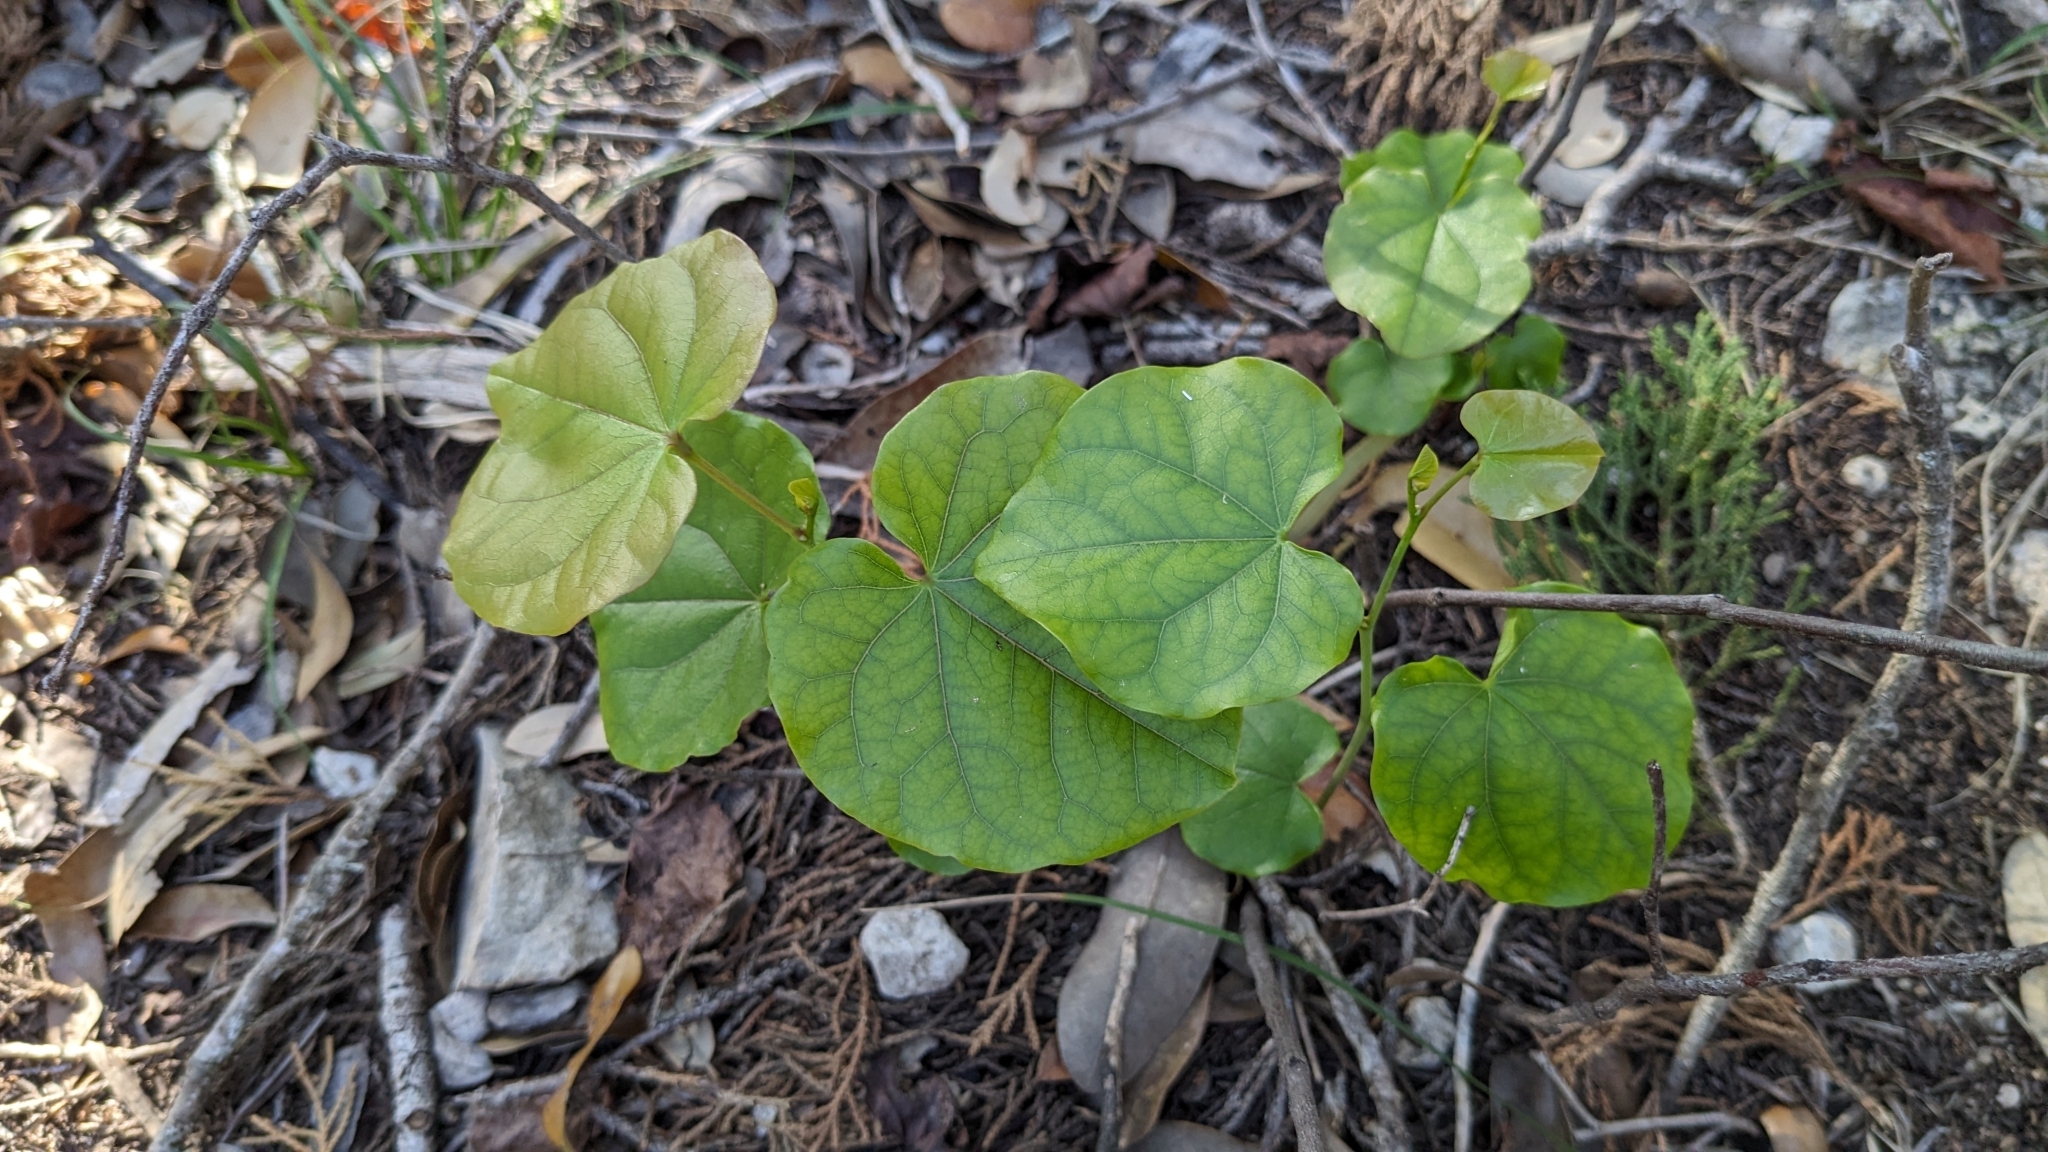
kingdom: Plantae
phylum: Tracheophyta
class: Magnoliopsida
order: Fabales
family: Fabaceae
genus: Cercis
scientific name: Cercis canadensis
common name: Eastern redbud
